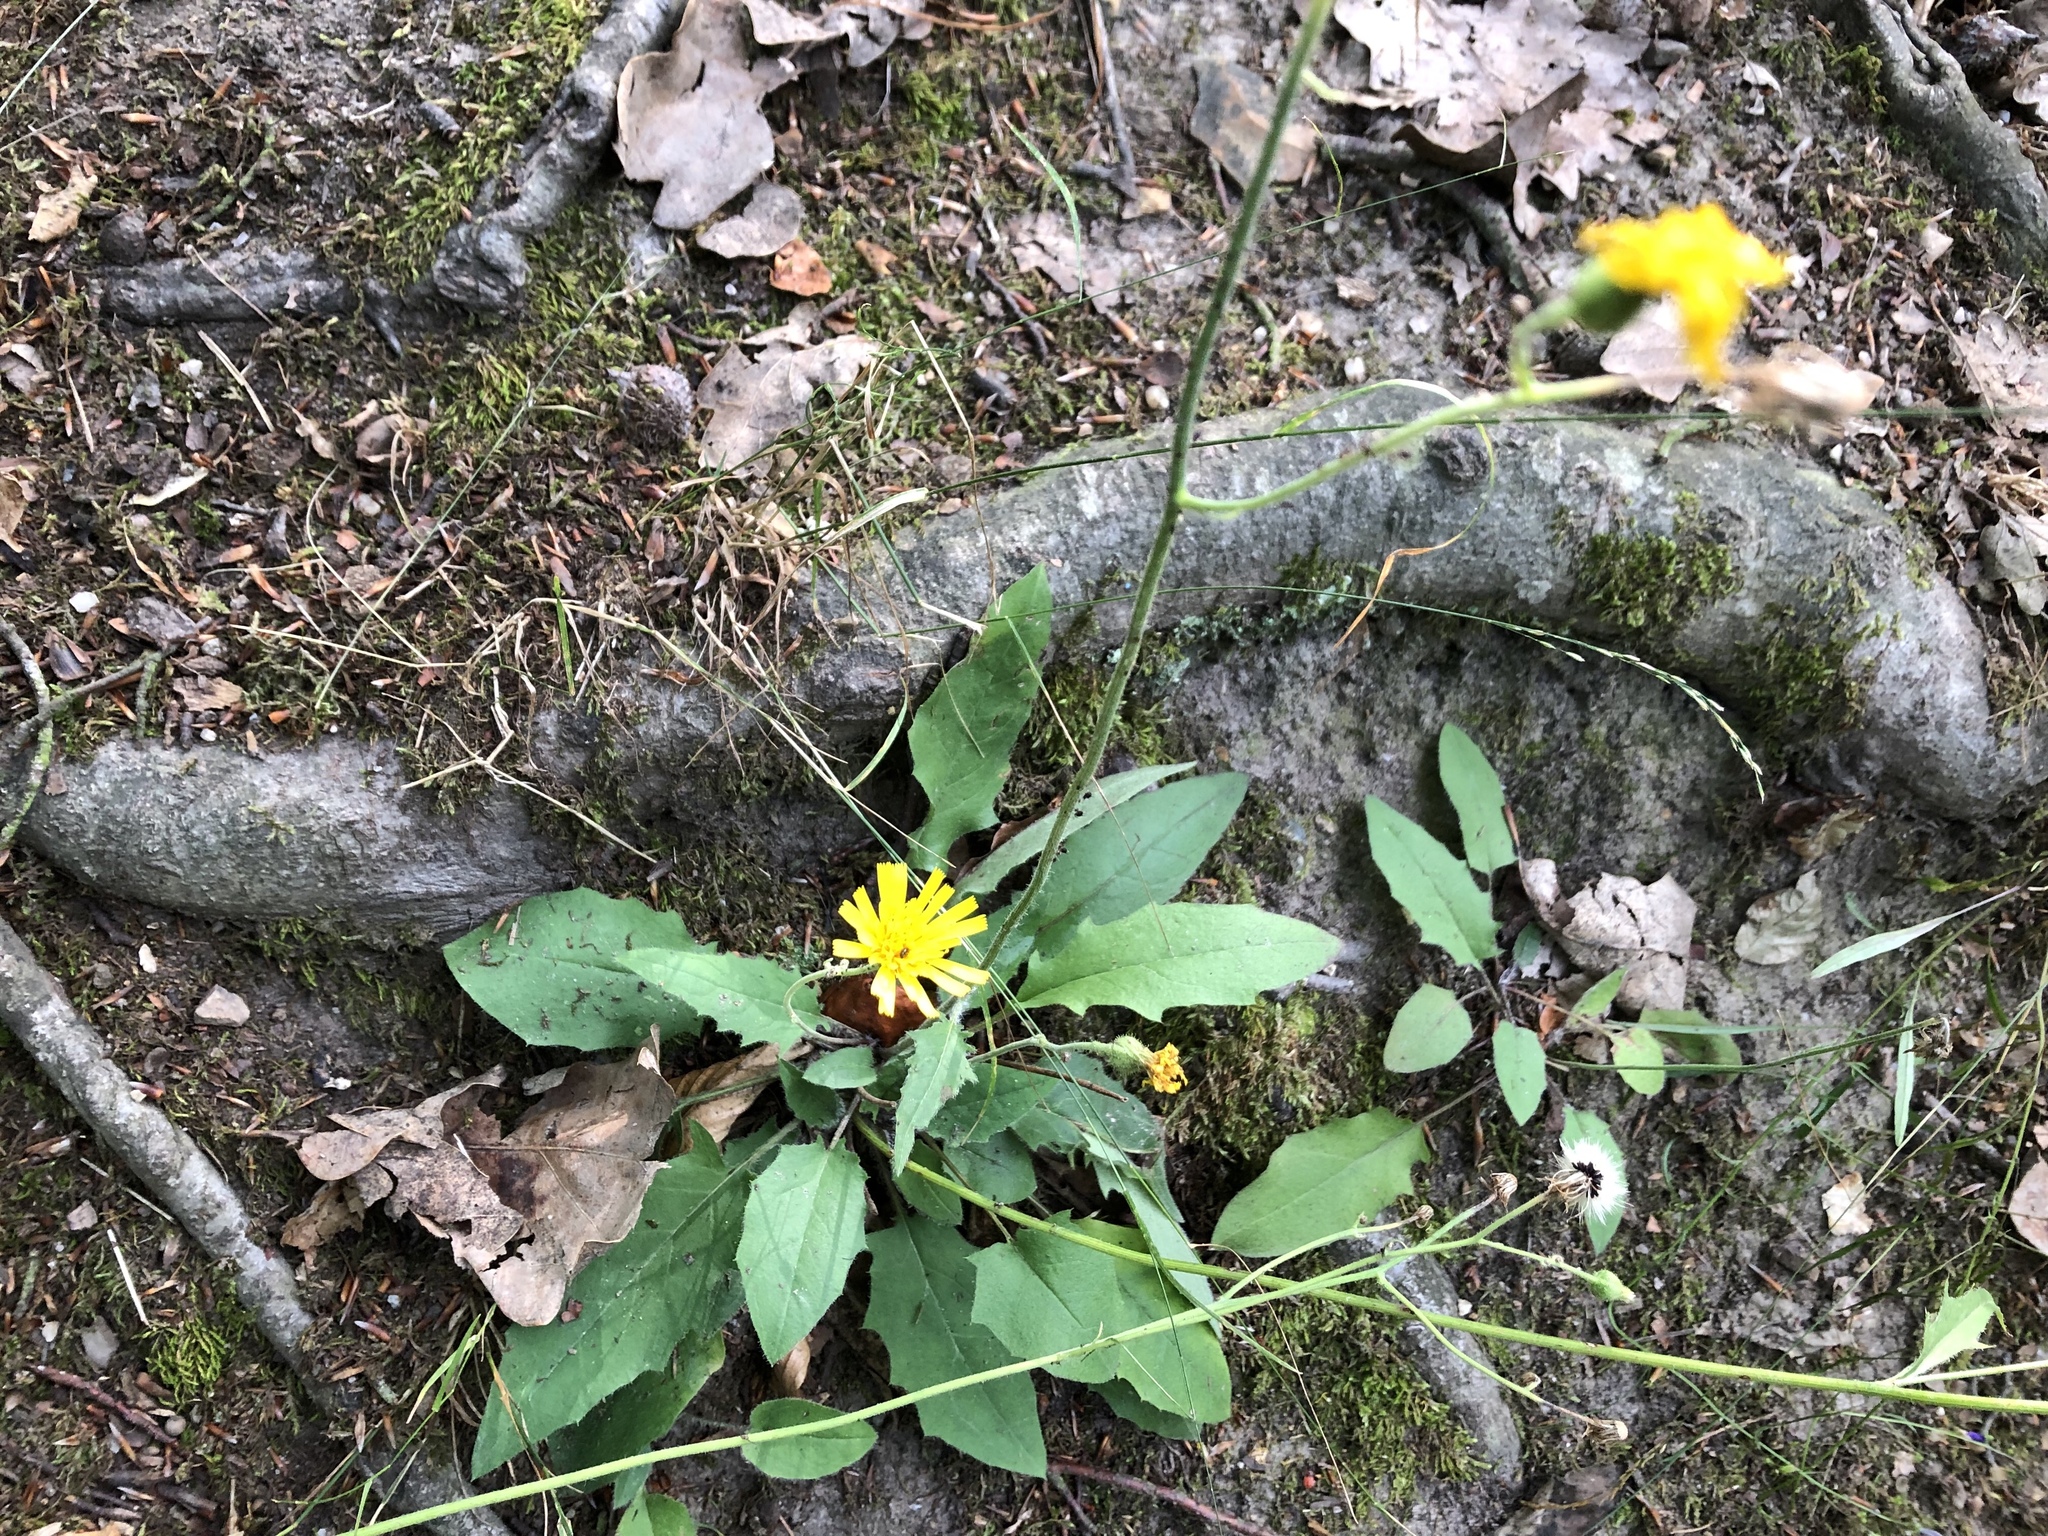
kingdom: Plantae
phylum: Tracheophyta
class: Magnoliopsida
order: Asterales
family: Asteraceae
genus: Hieracium
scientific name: Hieracium murorum
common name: Wall hawkweed
